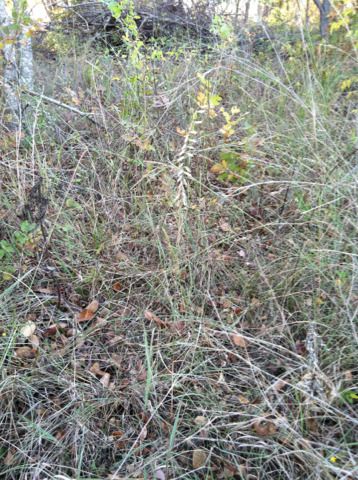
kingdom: Plantae
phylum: Tracheophyta
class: Liliopsida
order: Poales
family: Poaceae
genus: Bouteloua
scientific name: Bouteloua curtipendula
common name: Side-oats grama
